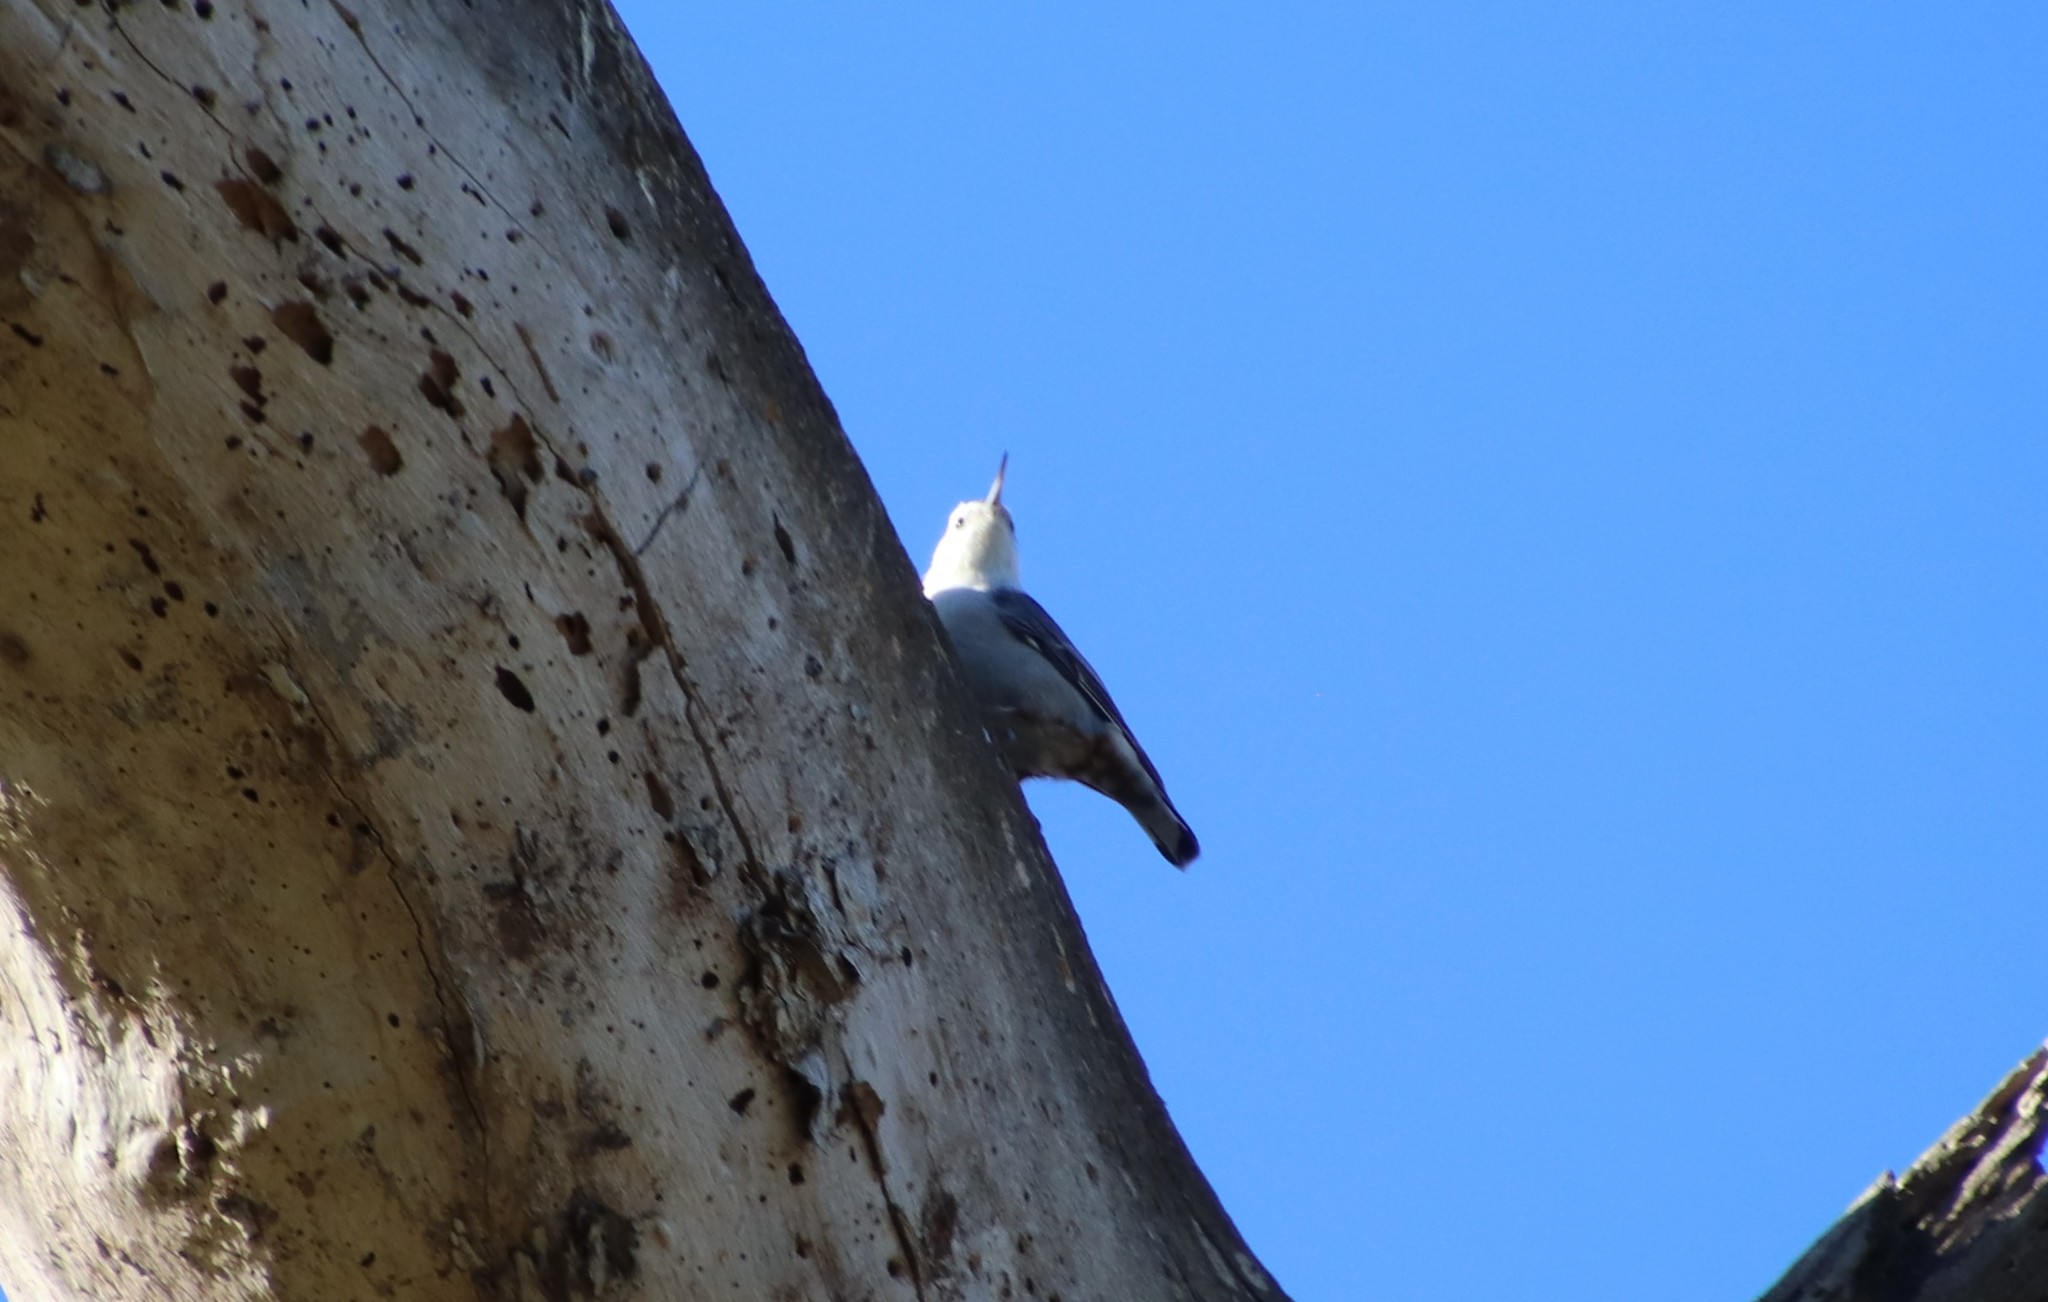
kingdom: Animalia
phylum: Chordata
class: Aves
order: Passeriformes
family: Sittidae
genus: Sitta
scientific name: Sitta carolinensis
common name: White-breasted nuthatch
